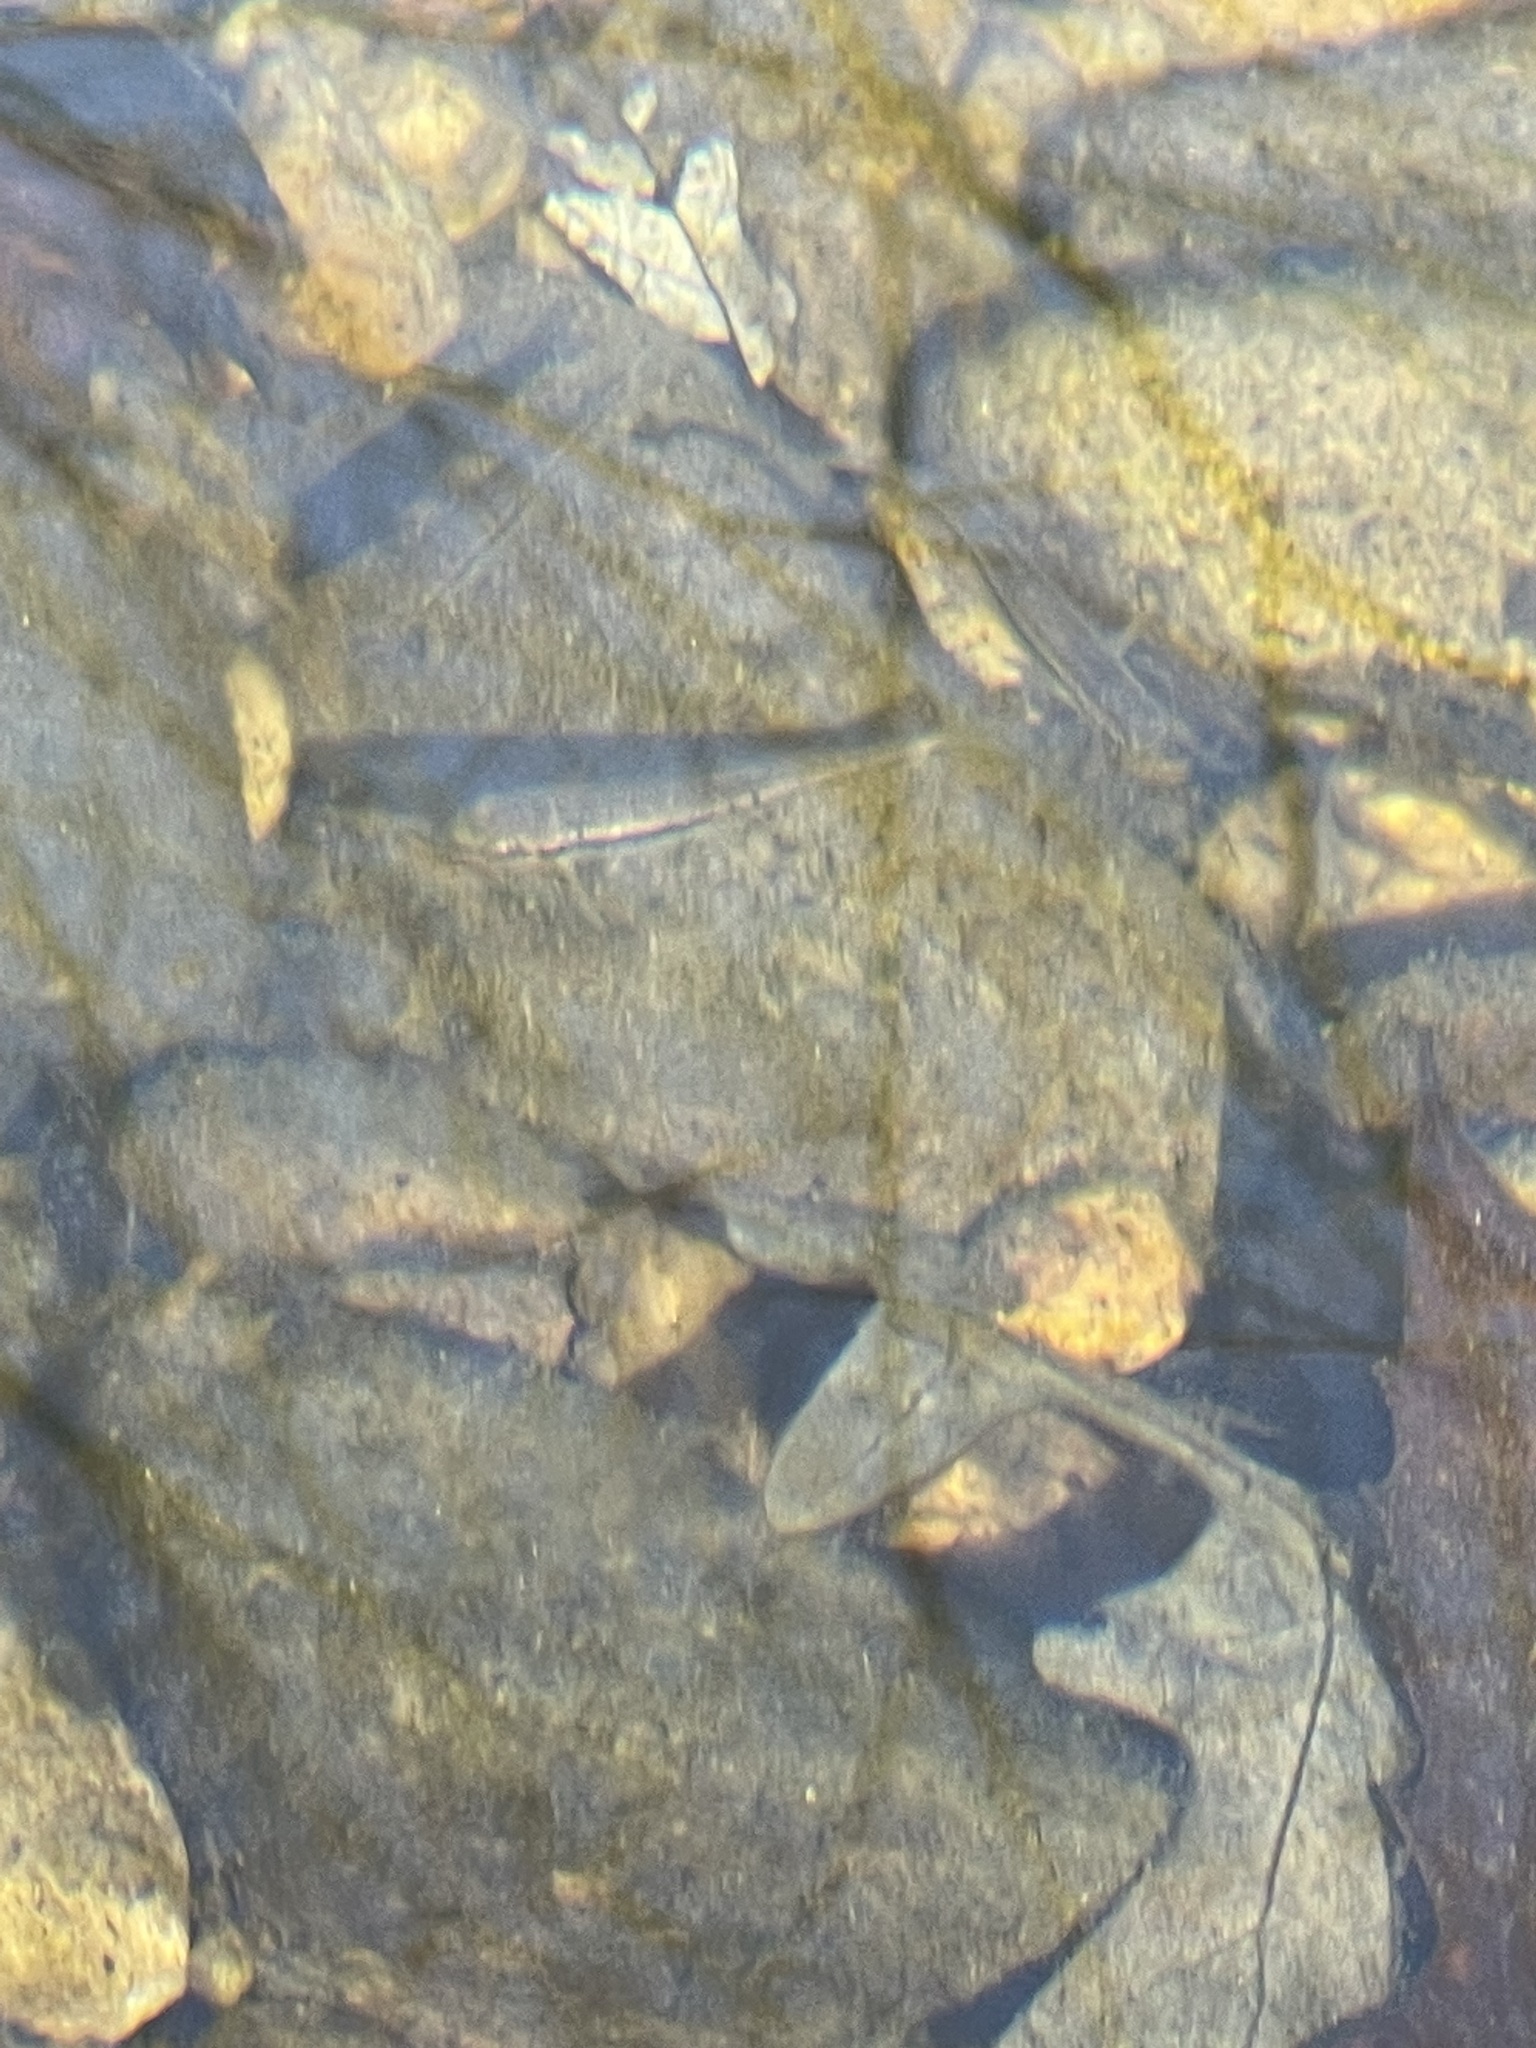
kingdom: Animalia
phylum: Chordata
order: Cypriniformes
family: Cyprinidae
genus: Rhinichthys
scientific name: Rhinichthys atratulus
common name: Eastern blacknose dace
